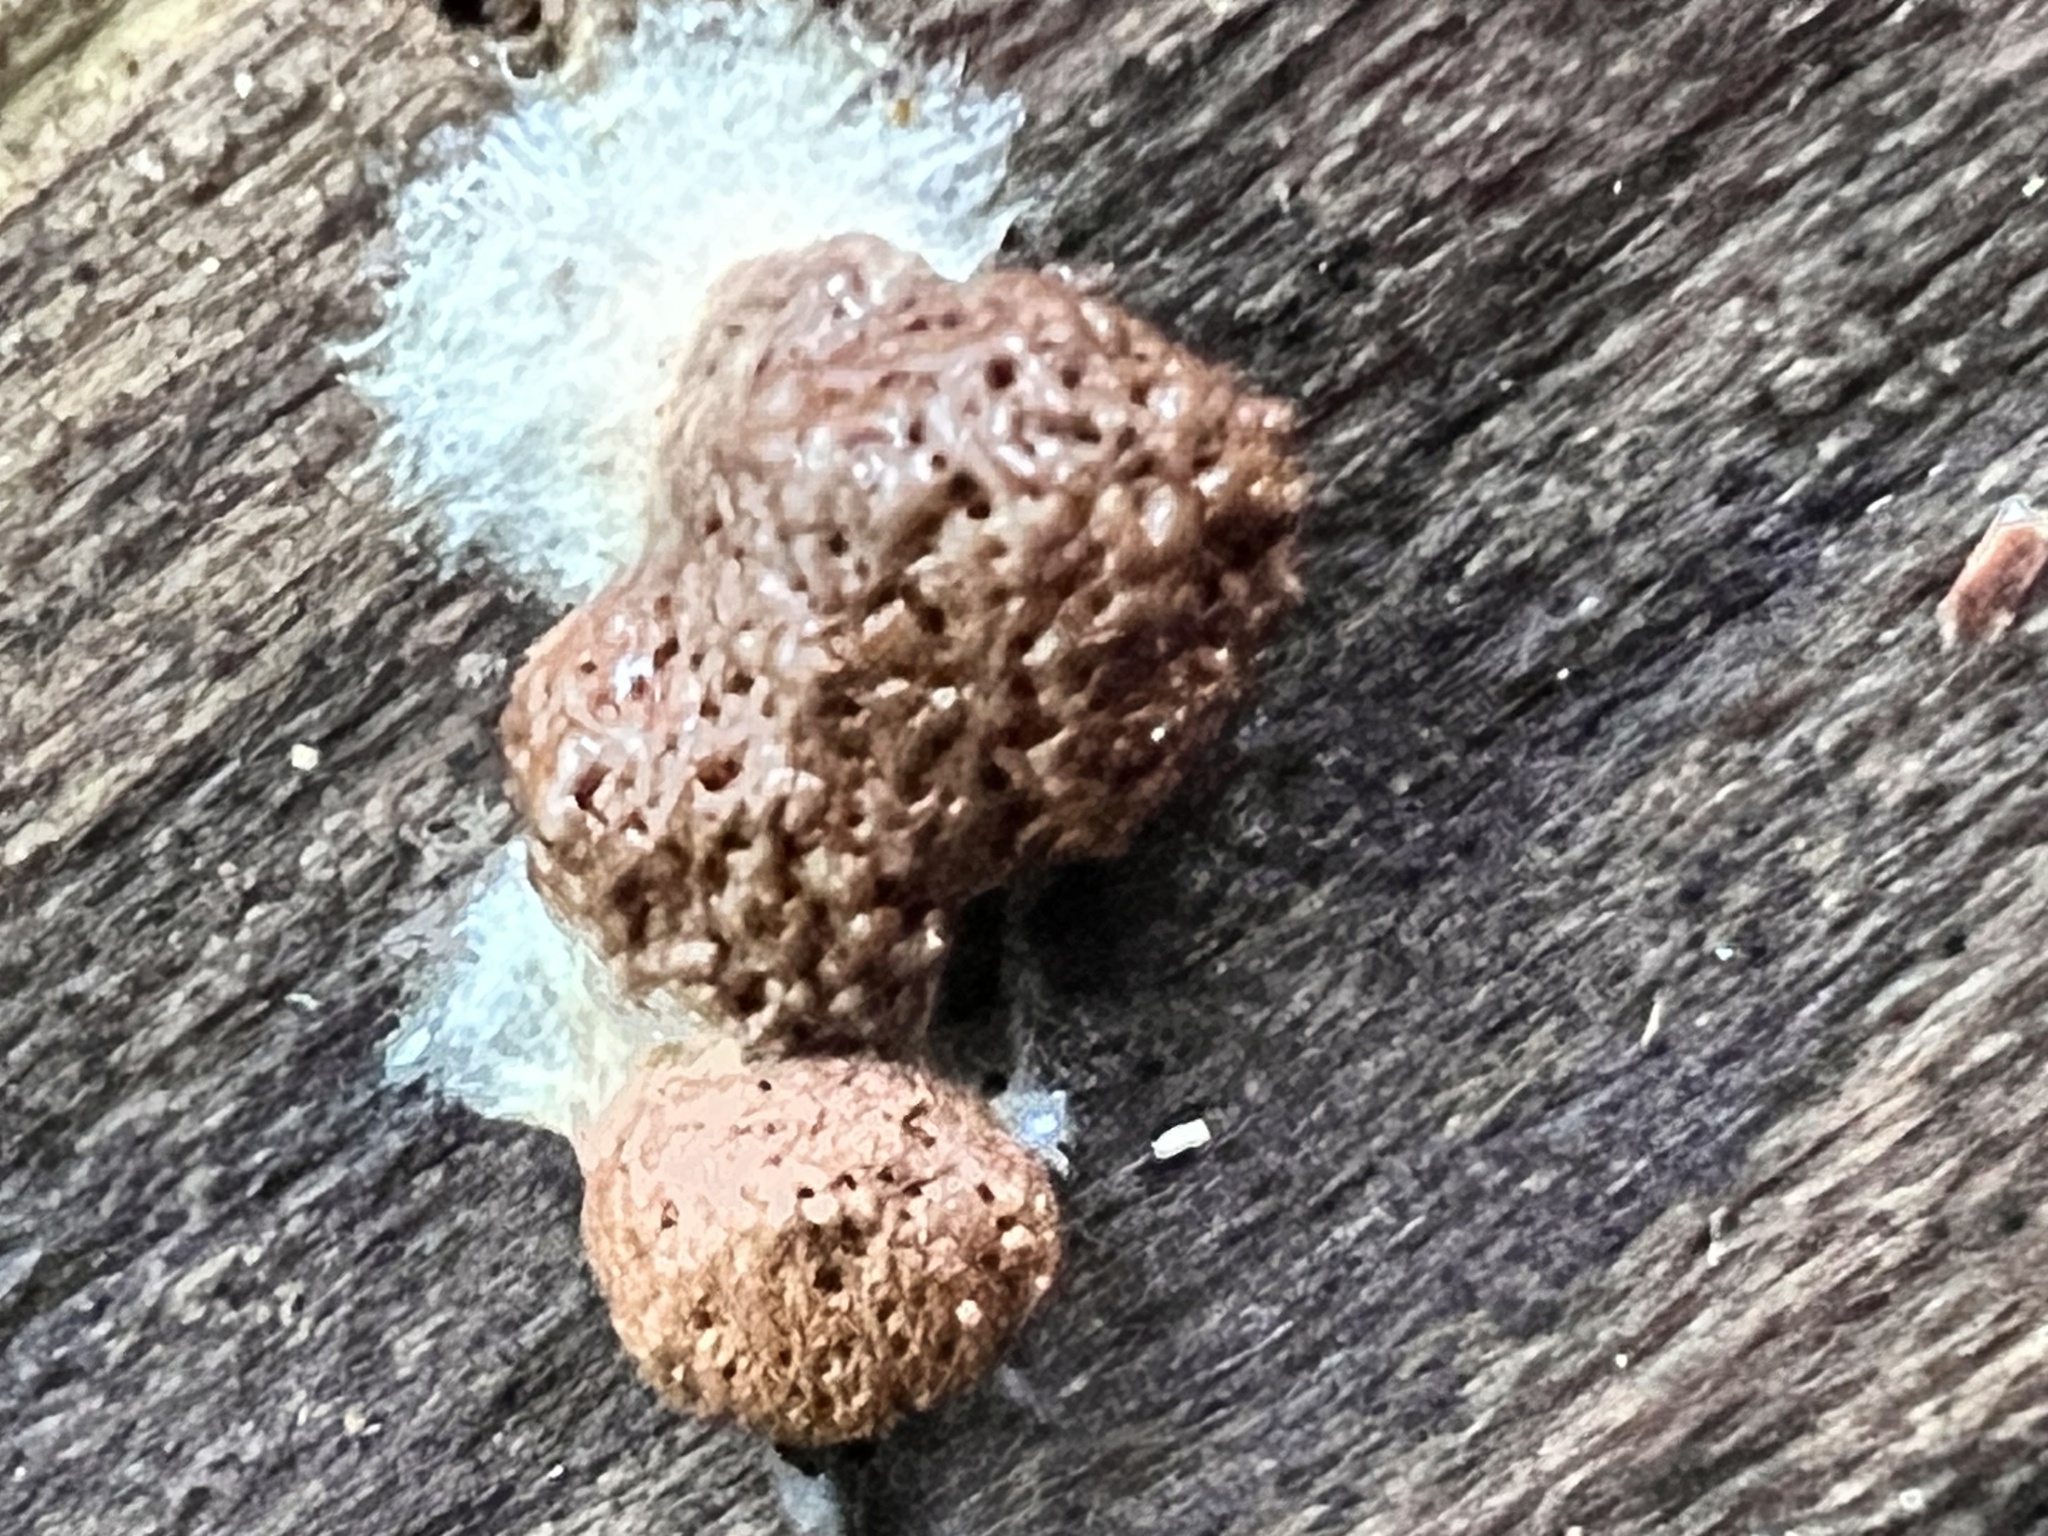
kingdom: Protozoa
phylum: Mycetozoa
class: Myxomycetes
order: Cribrariales
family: Tubiferaceae
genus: Reticularia
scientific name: Reticularia splendens
